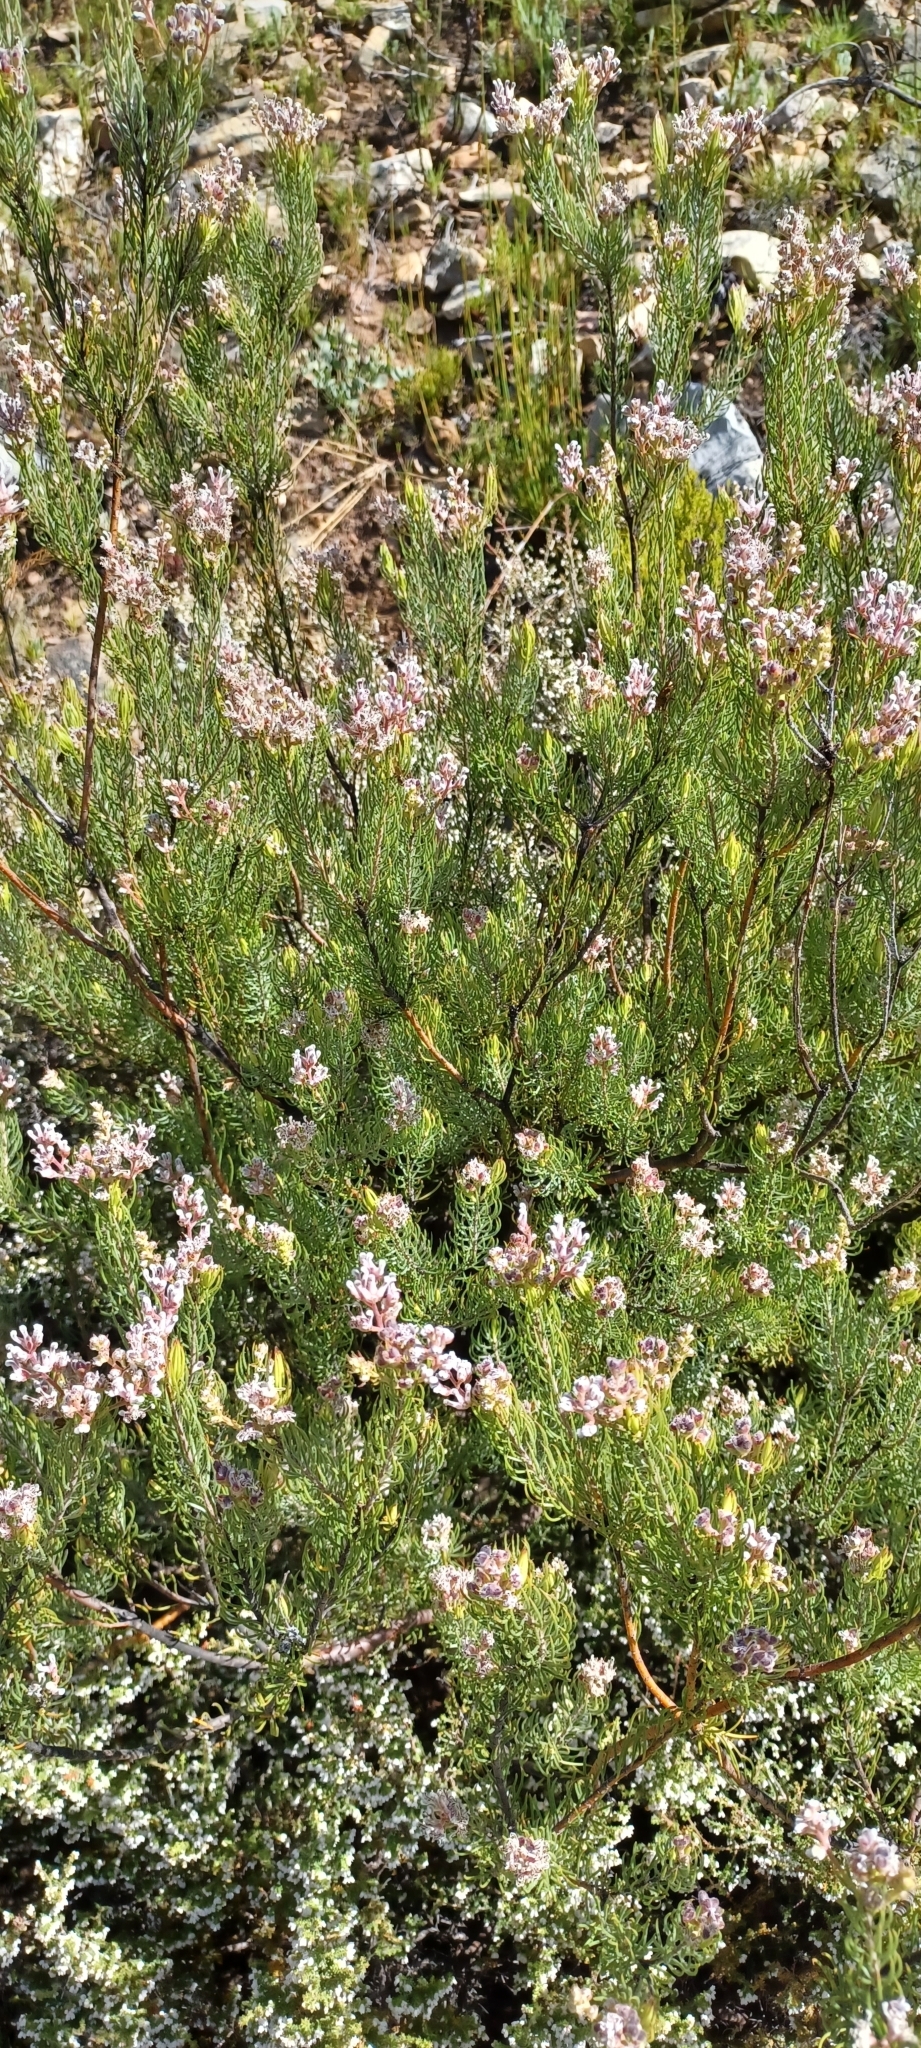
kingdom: Plantae
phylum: Tracheophyta
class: Magnoliopsida
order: Proteales
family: Proteaceae
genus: Spatalla
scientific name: Spatalla incurva
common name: Swan-head spoon
